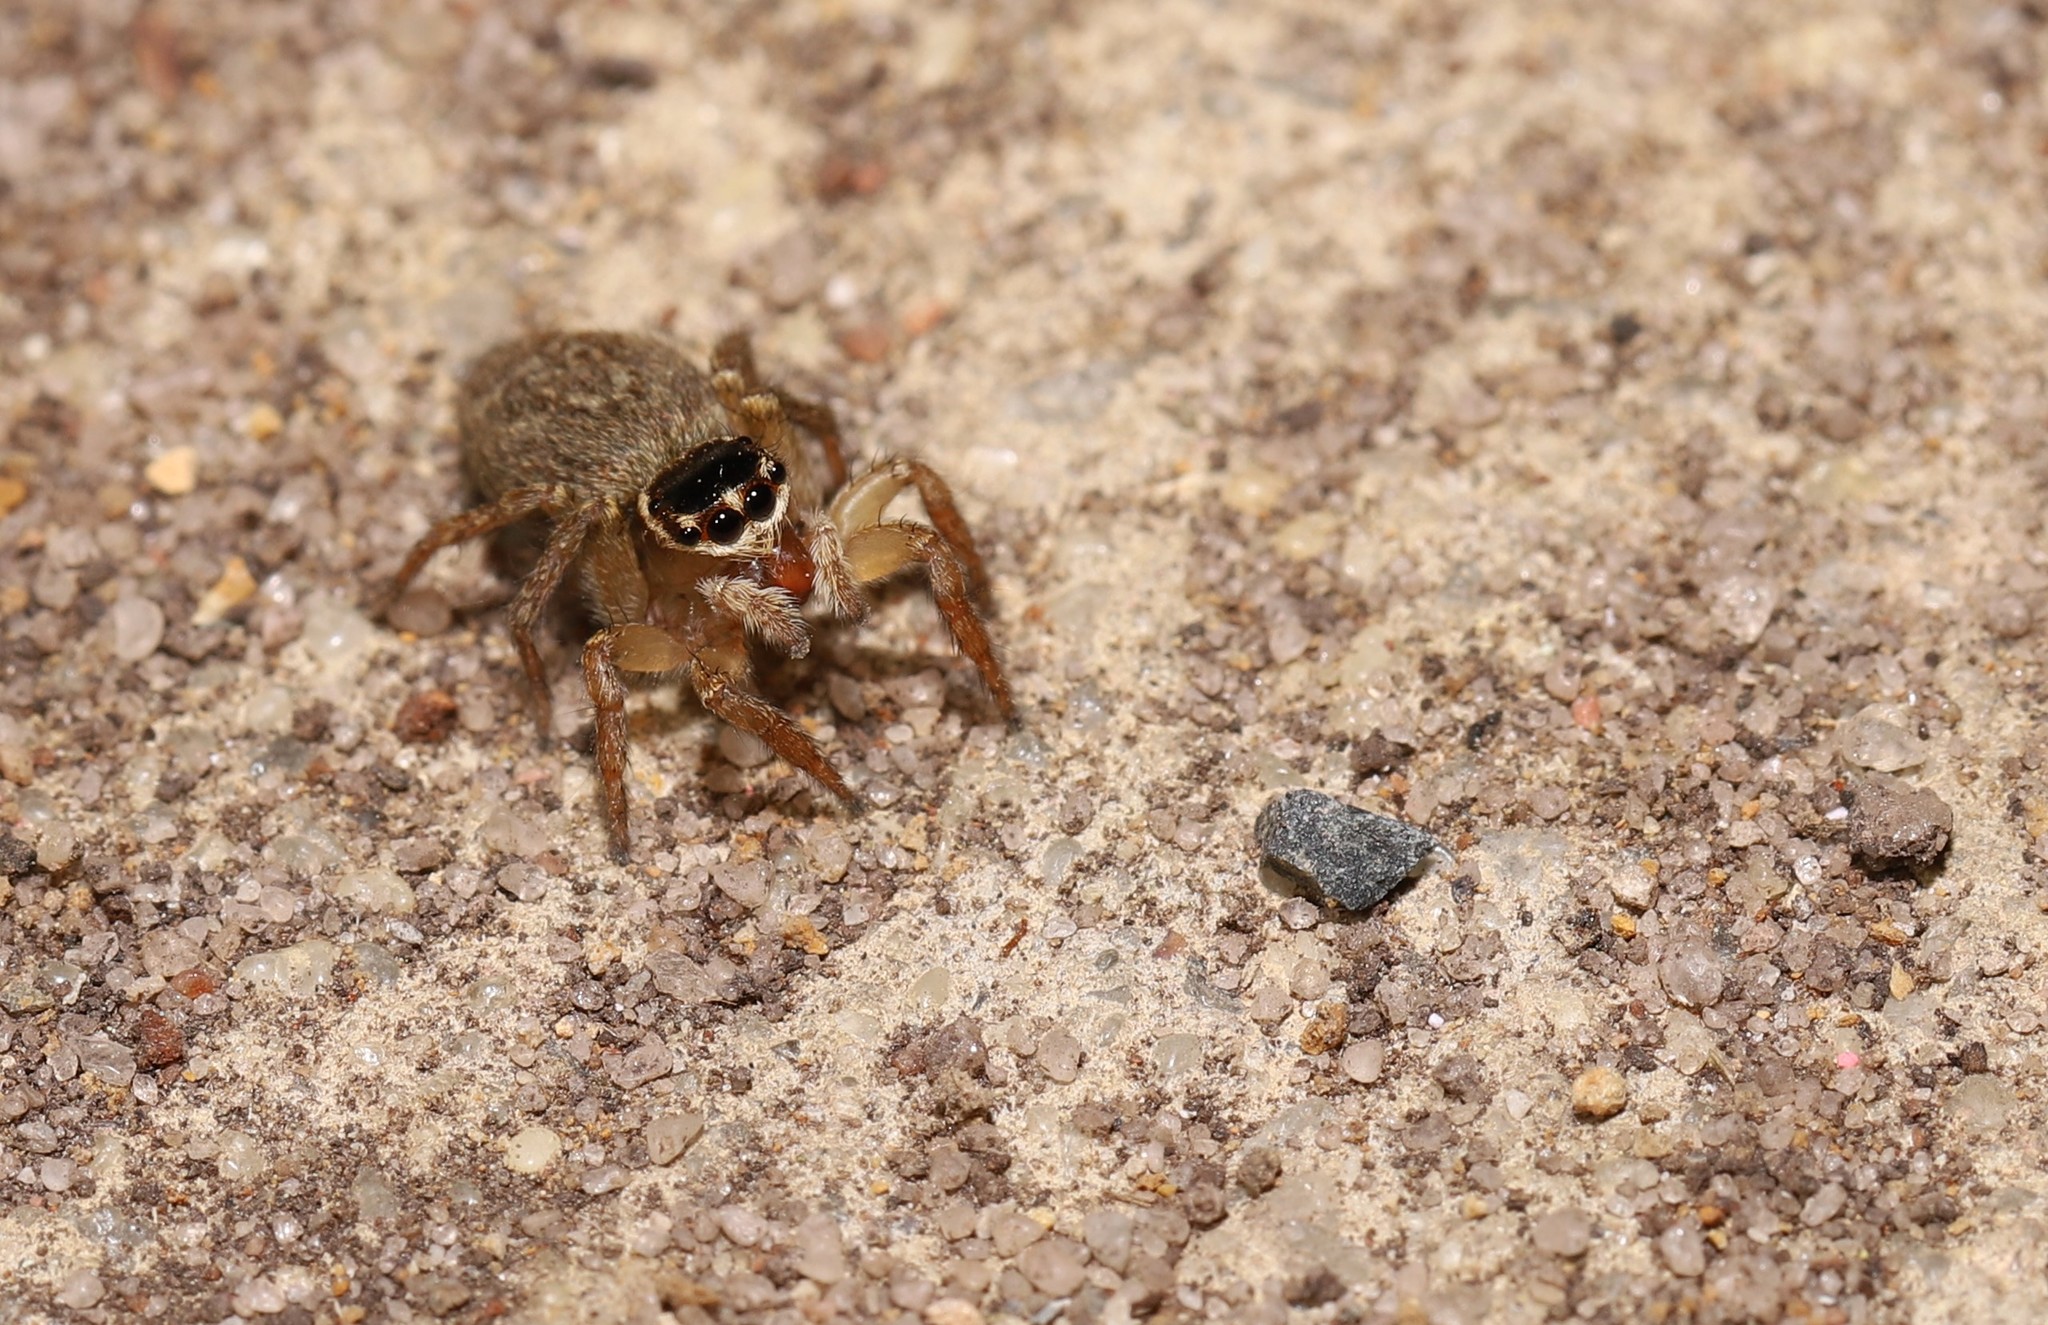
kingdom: Animalia
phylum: Arthropoda
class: Arachnida
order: Araneae
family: Salticidae
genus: Maratus
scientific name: Maratus griseus
